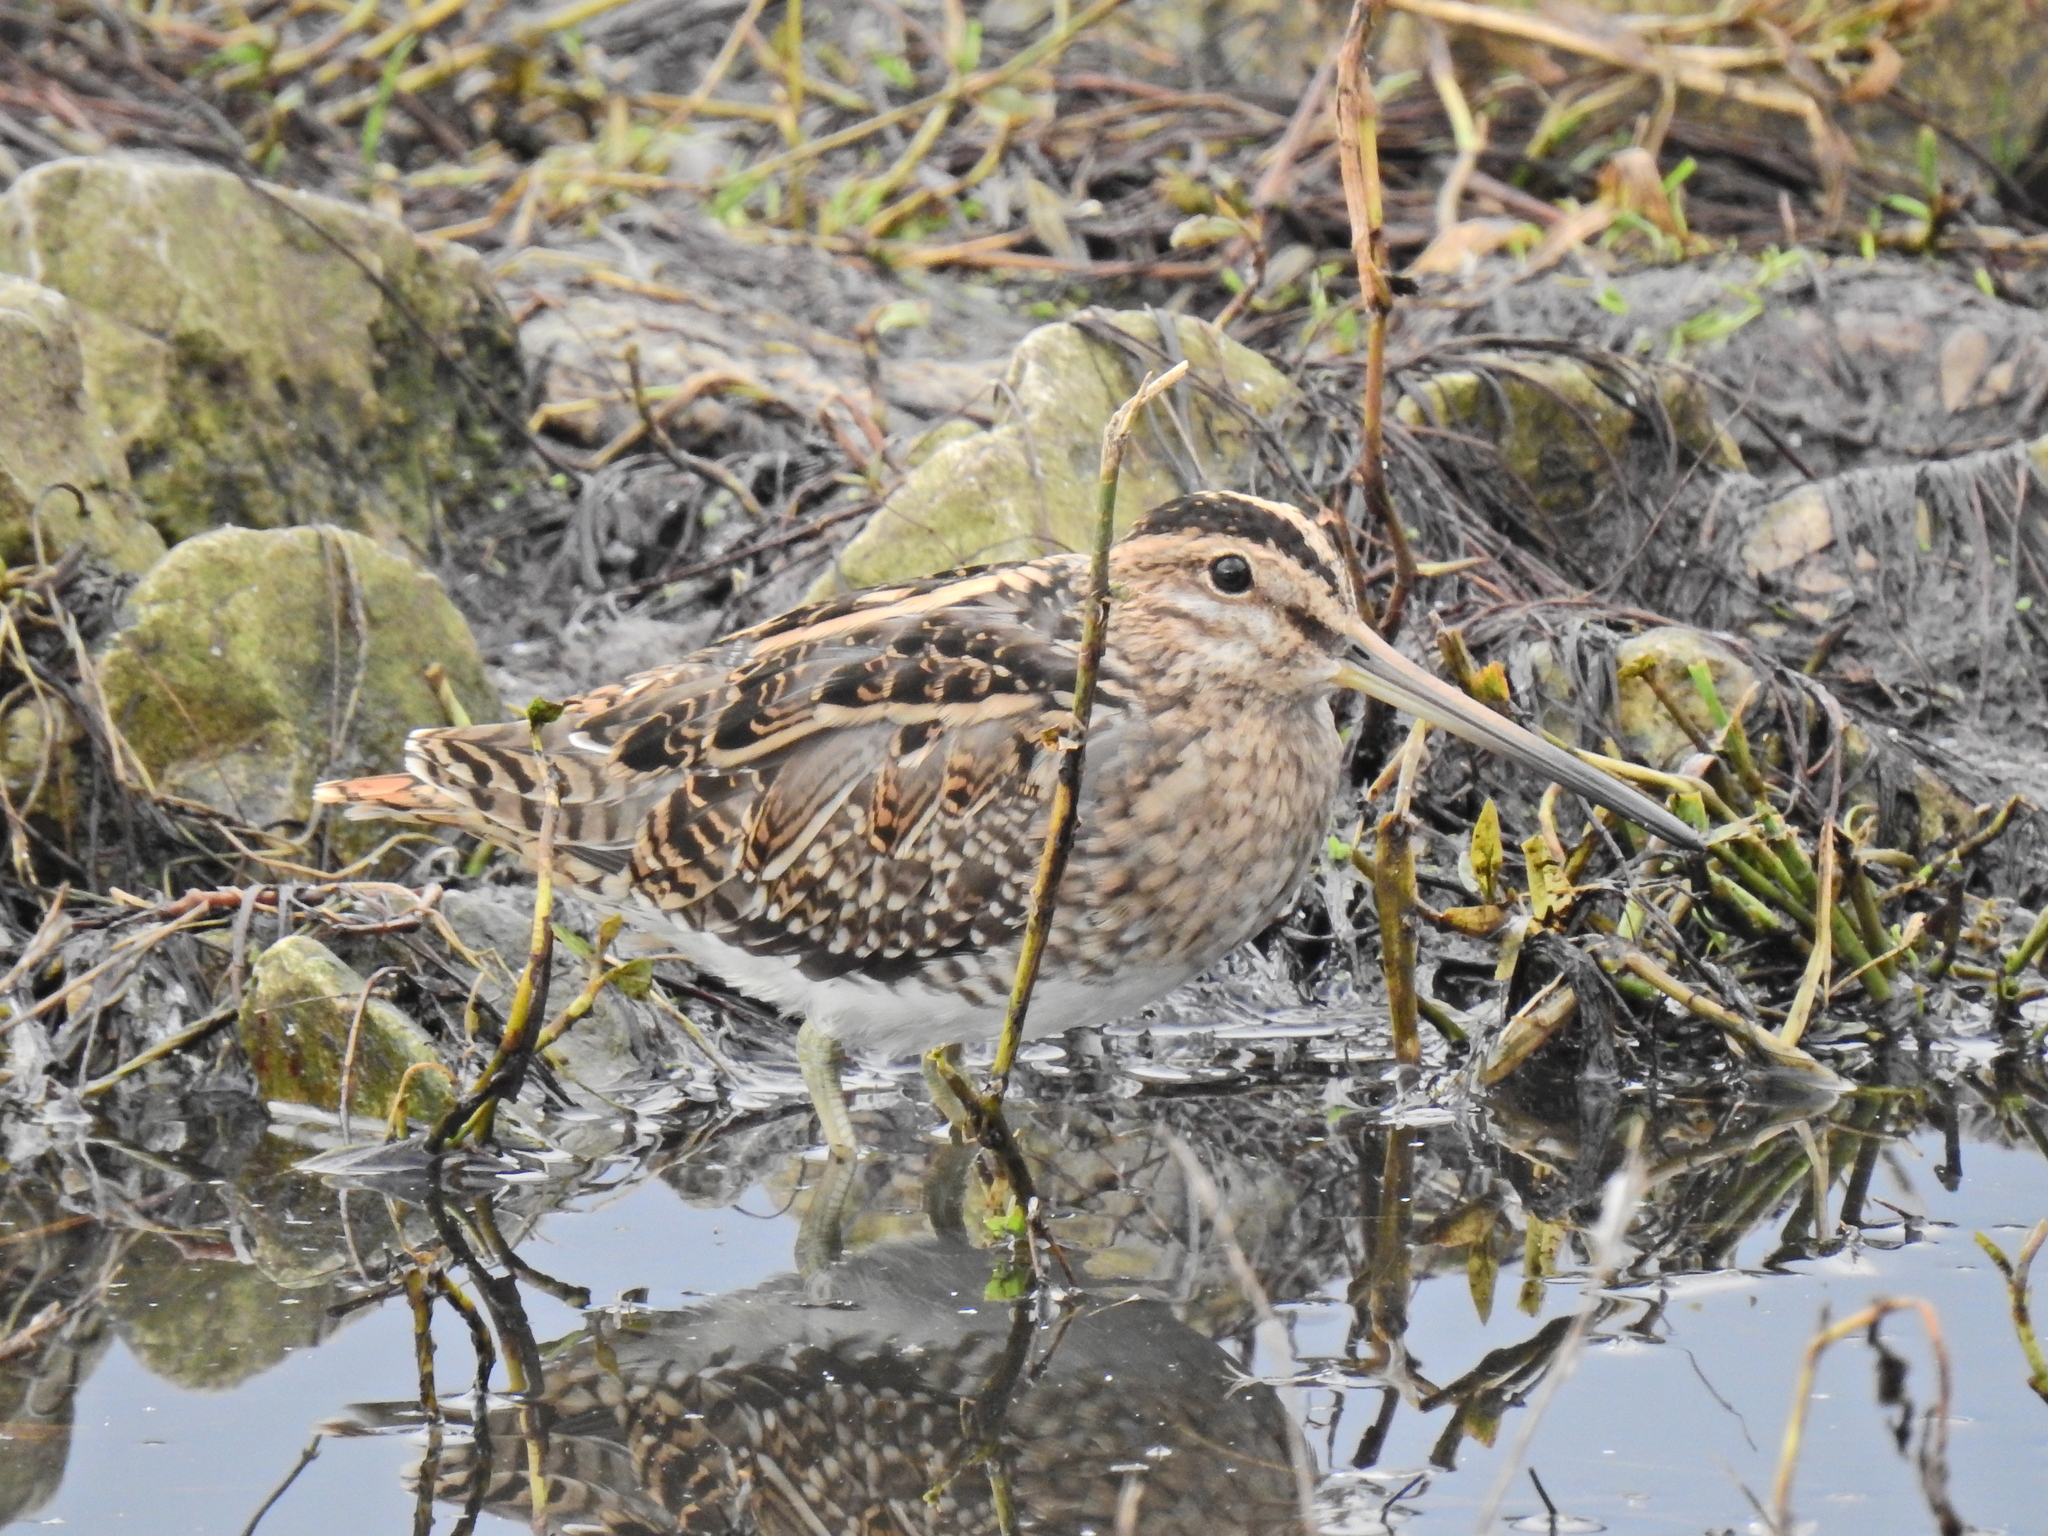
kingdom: Animalia
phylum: Chordata
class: Aves
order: Charadriiformes
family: Scolopacidae
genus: Gallinago
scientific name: Gallinago gallinago
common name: Common snipe
